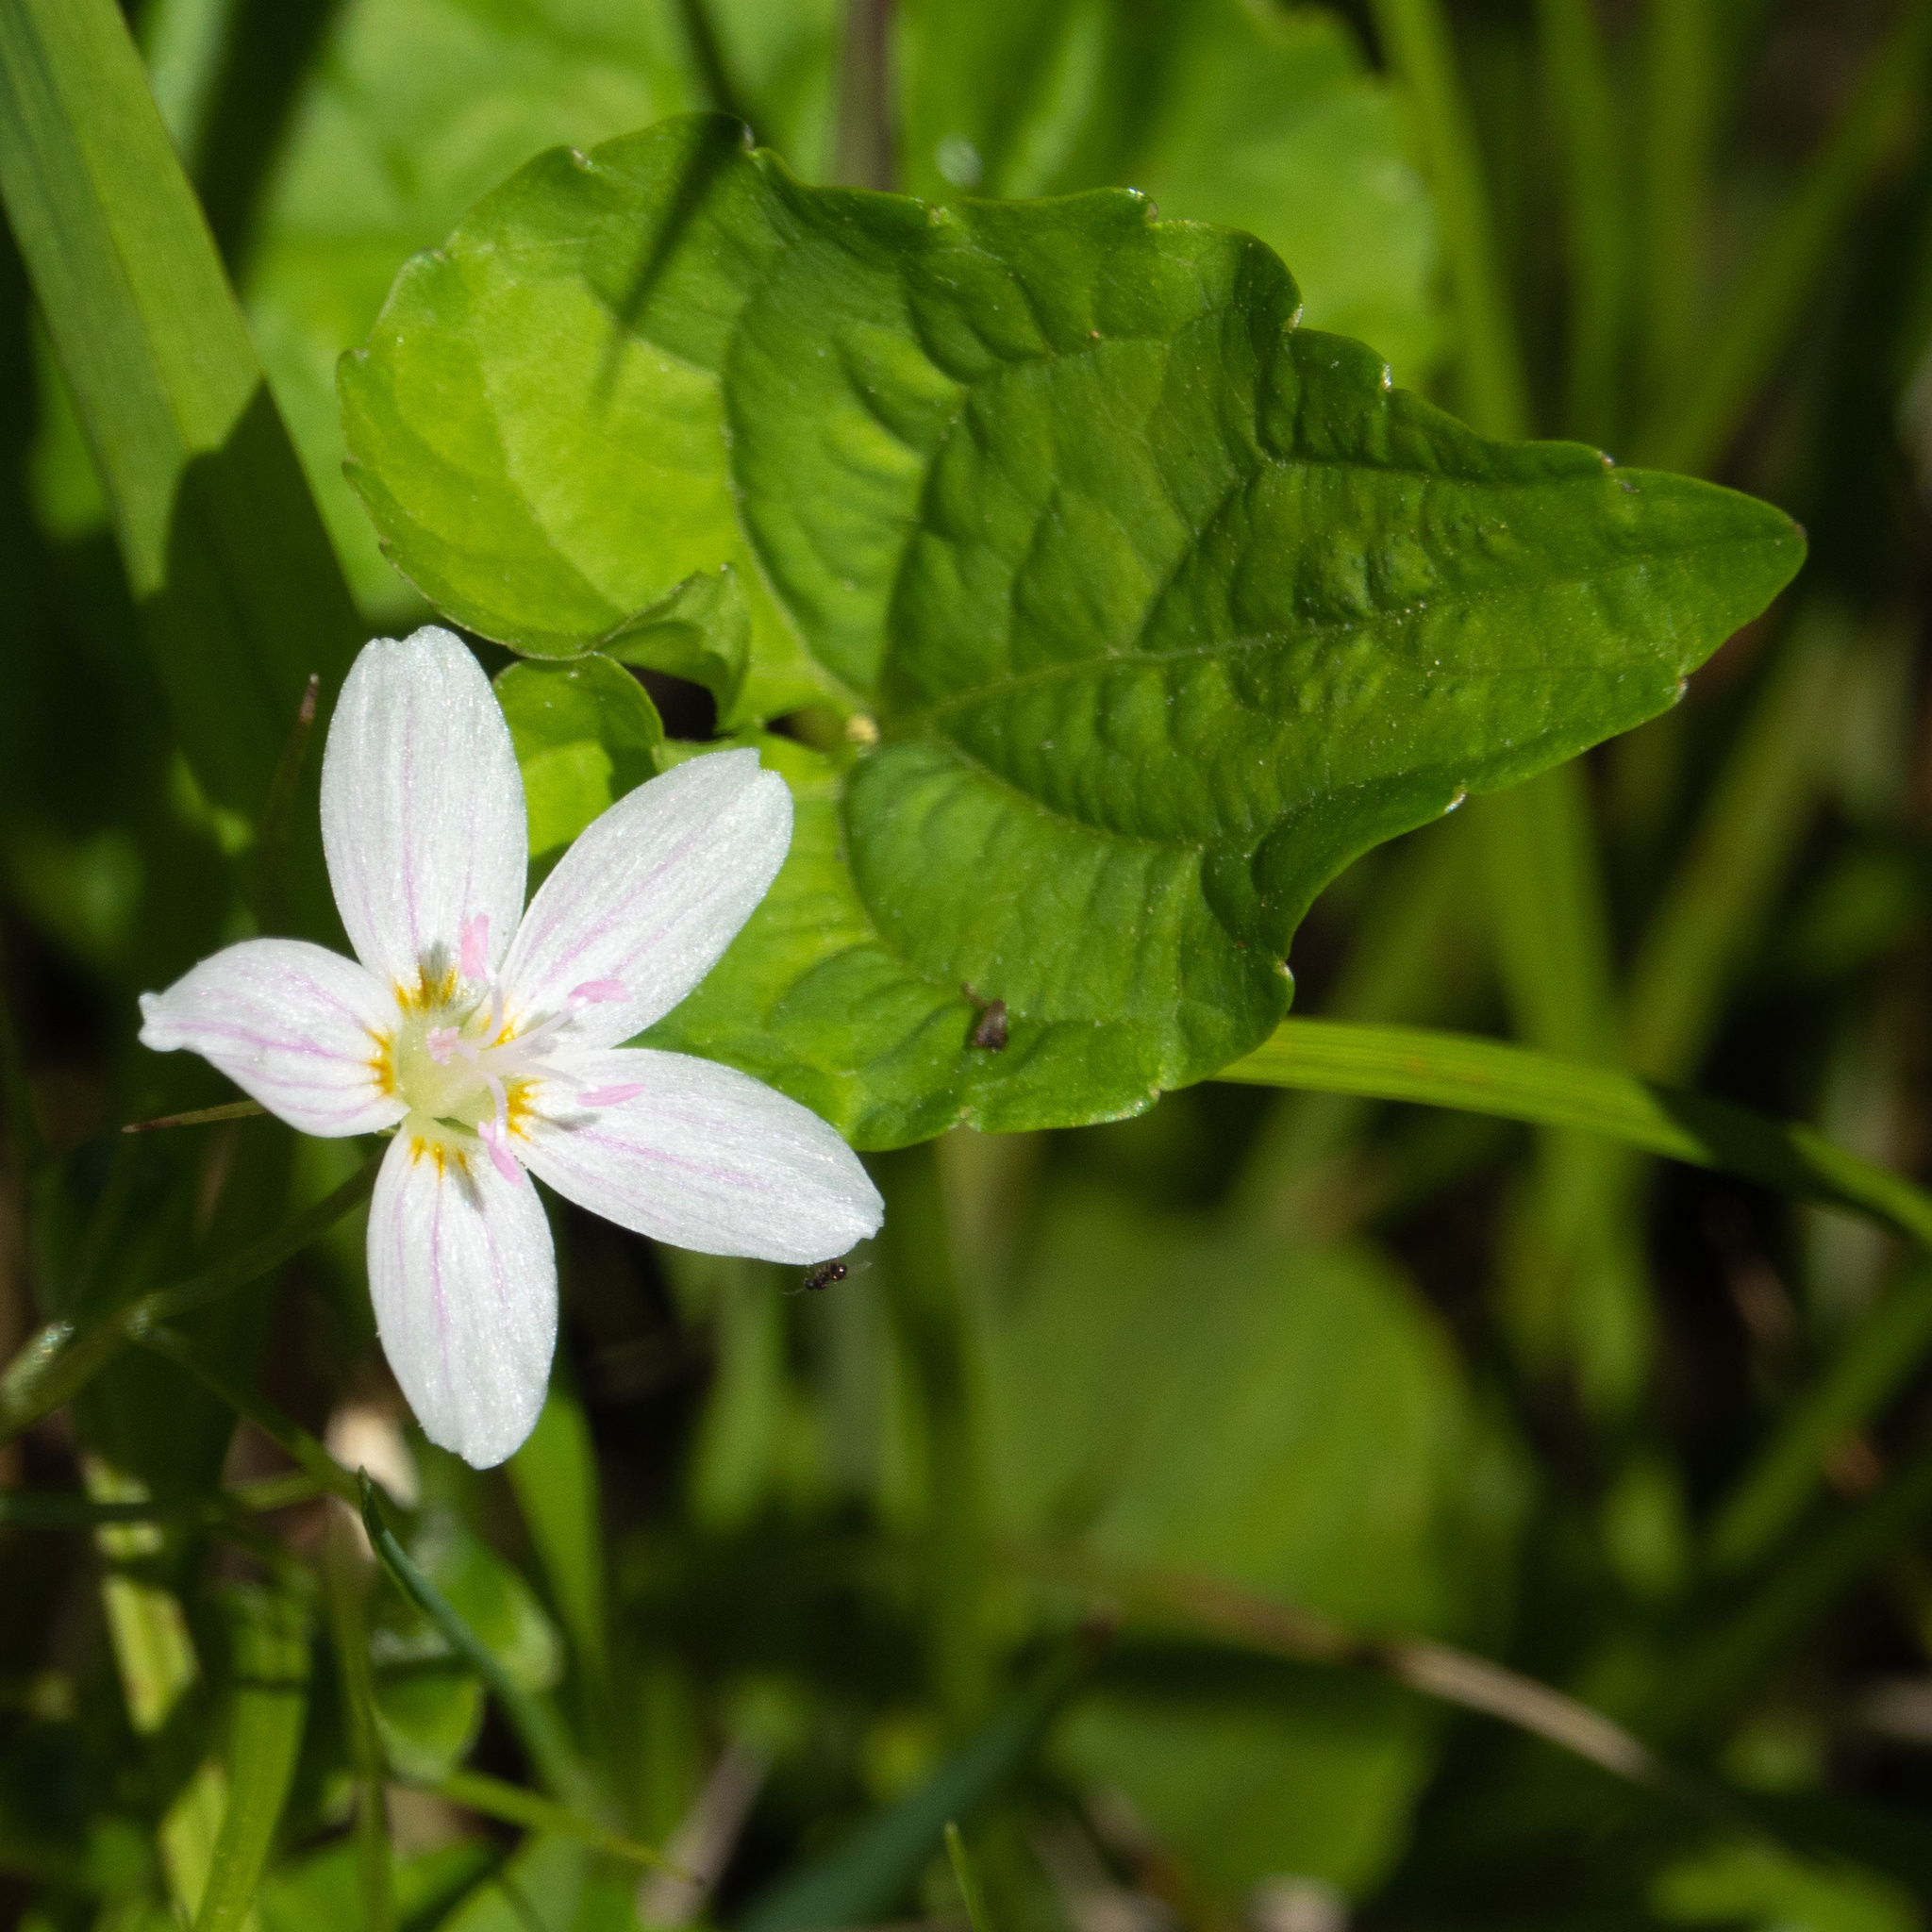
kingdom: Plantae
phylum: Tracheophyta
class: Magnoliopsida
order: Caryophyllales
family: Montiaceae
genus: Claytonia
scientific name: Claytonia virginica
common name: Virginia springbeauty
